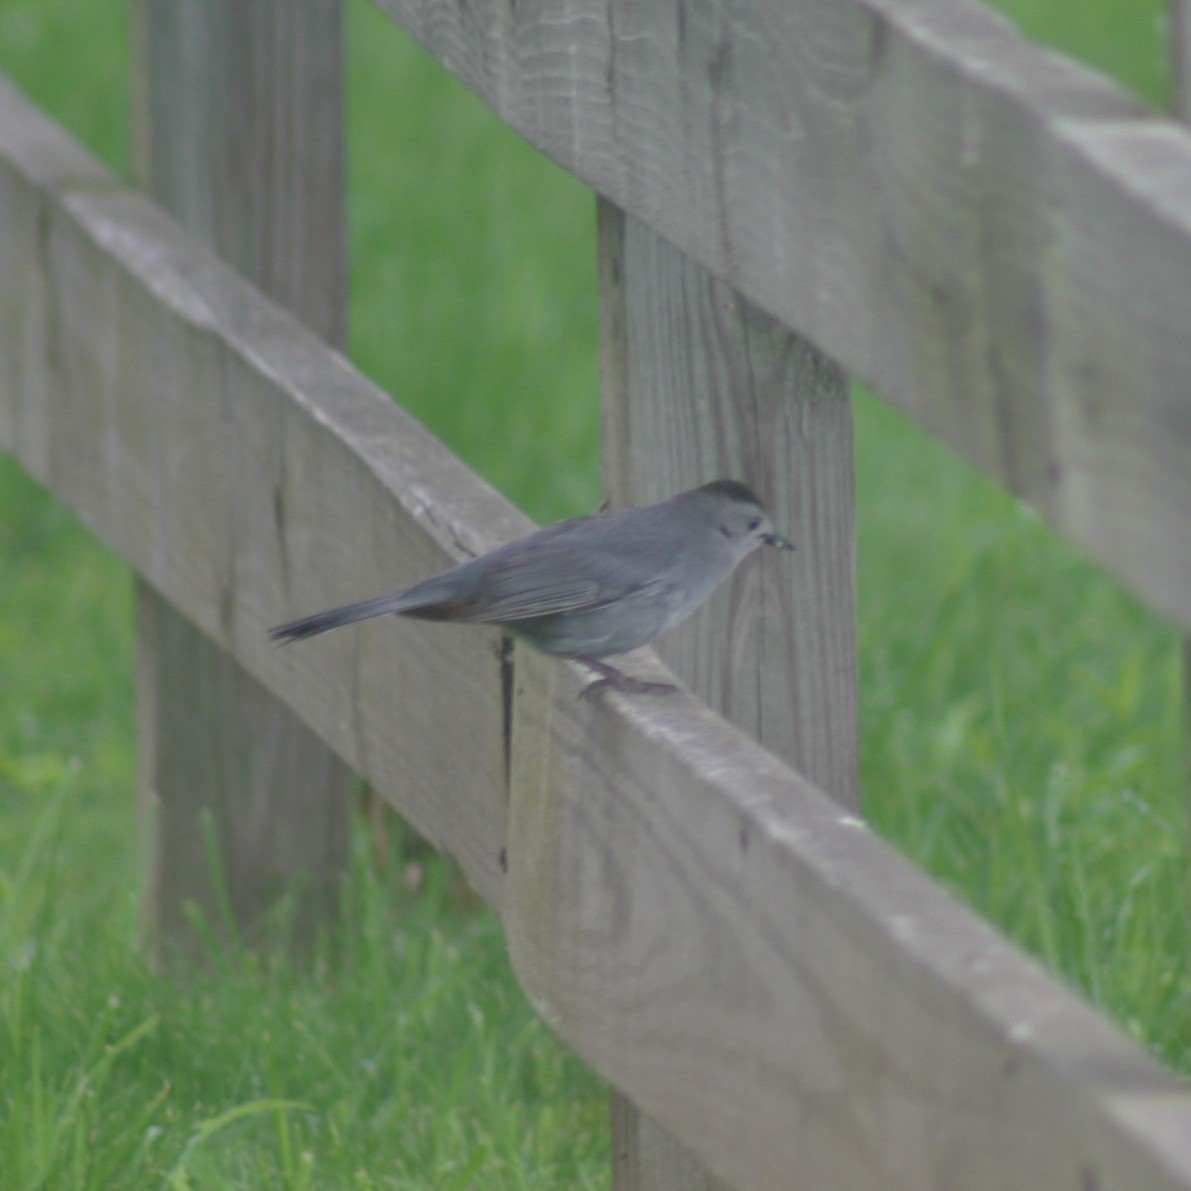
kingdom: Animalia
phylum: Chordata
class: Aves
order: Passeriformes
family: Mimidae
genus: Dumetella
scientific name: Dumetella carolinensis
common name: Gray catbird
